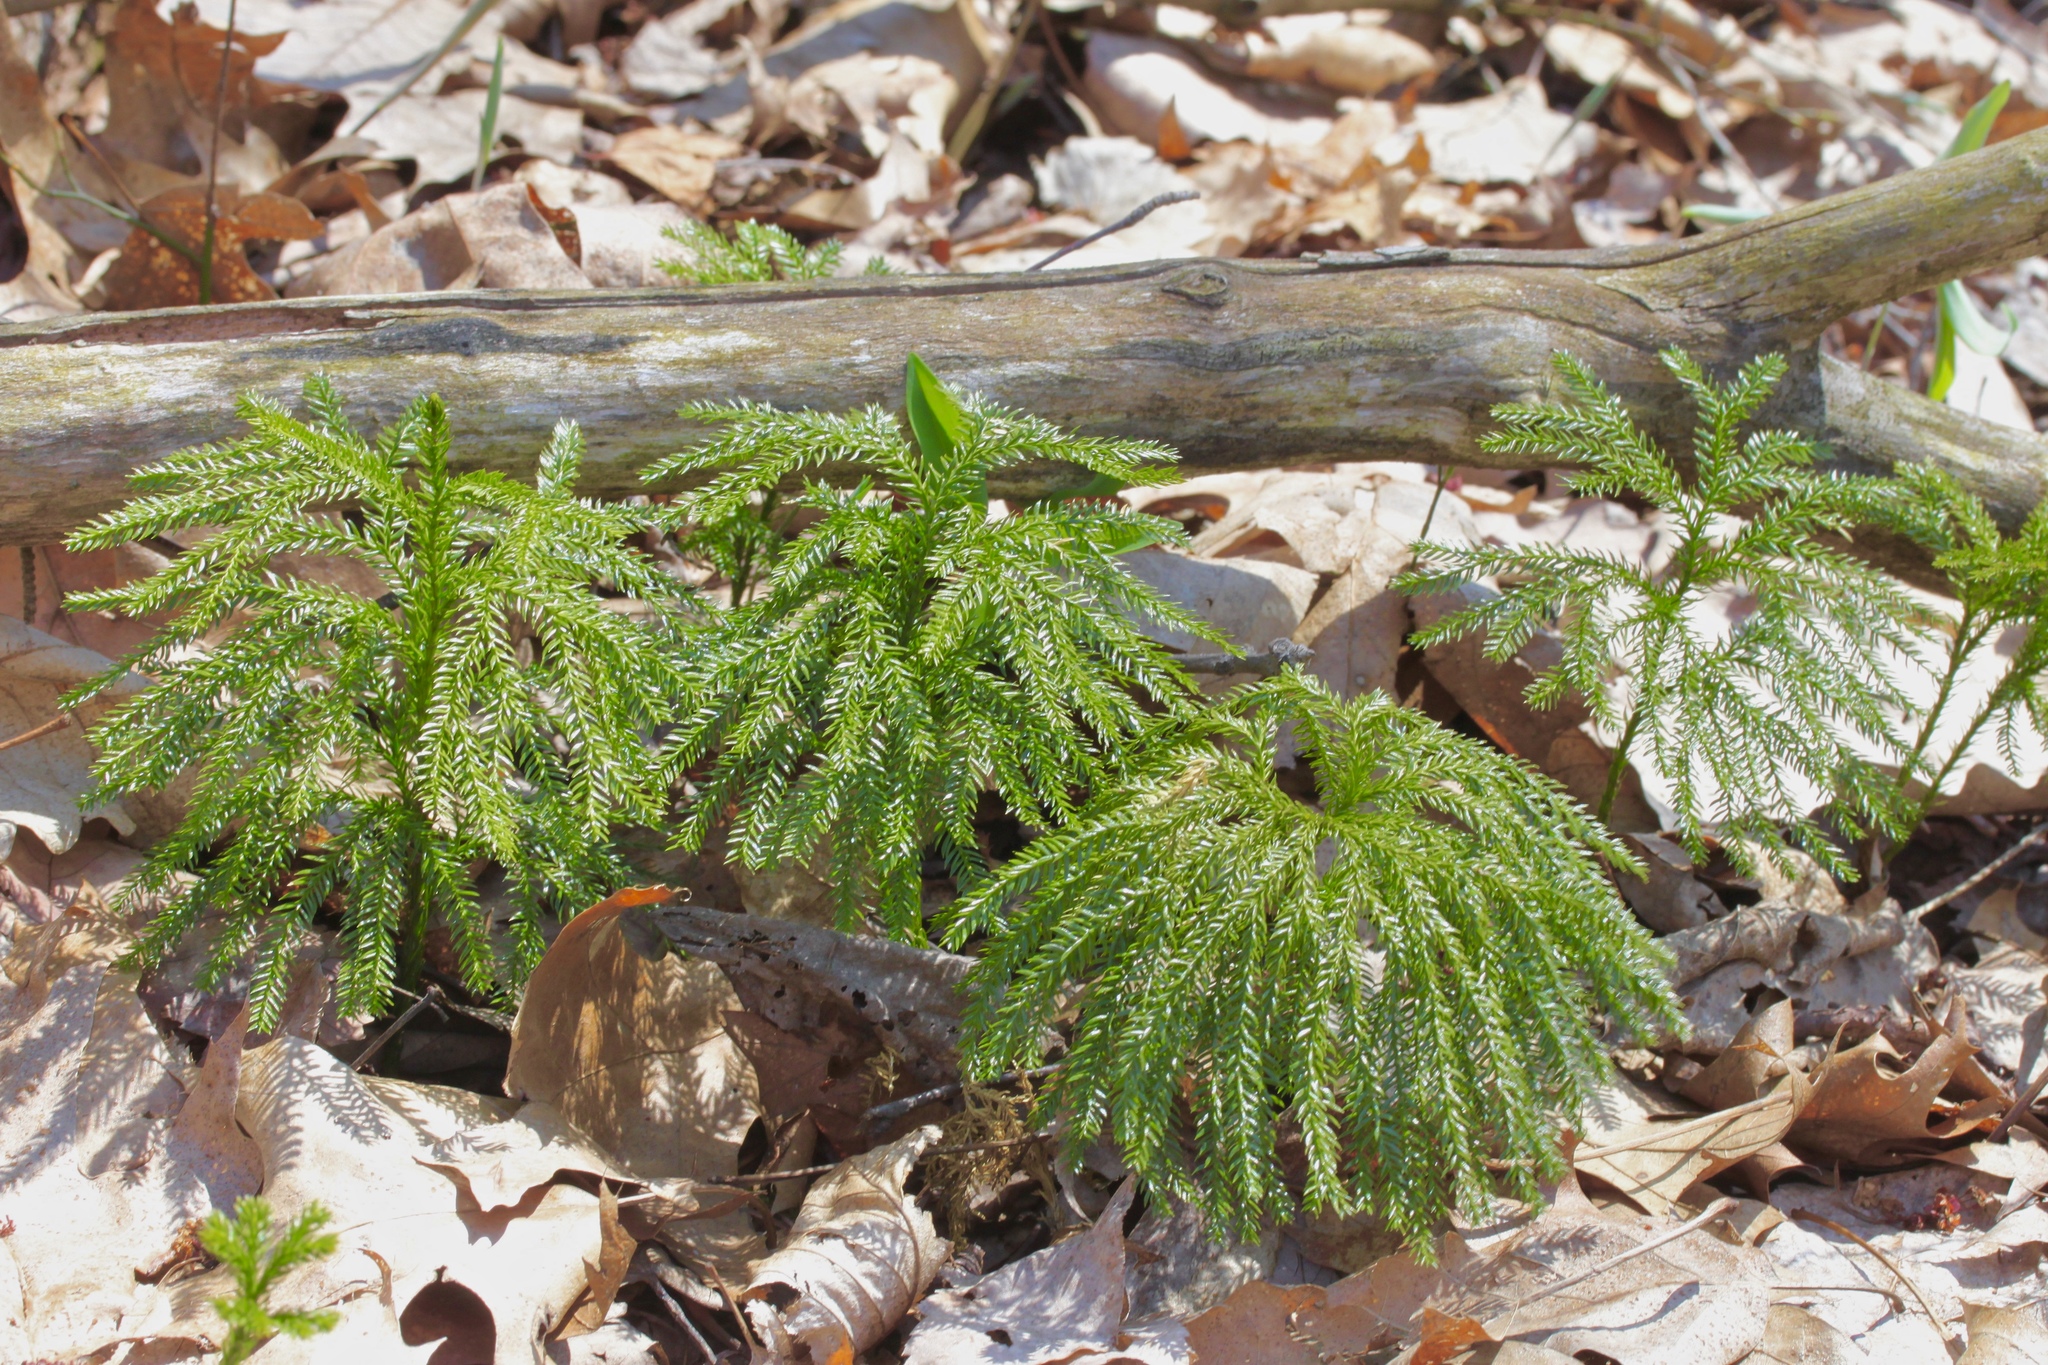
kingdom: Plantae
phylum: Tracheophyta
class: Lycopodiopsida
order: Lycopodiales
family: Lycopodiaceae
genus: Dendrolycopodium
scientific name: Dendrolycopodium dendroideum
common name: Northern tree-clubmoss
